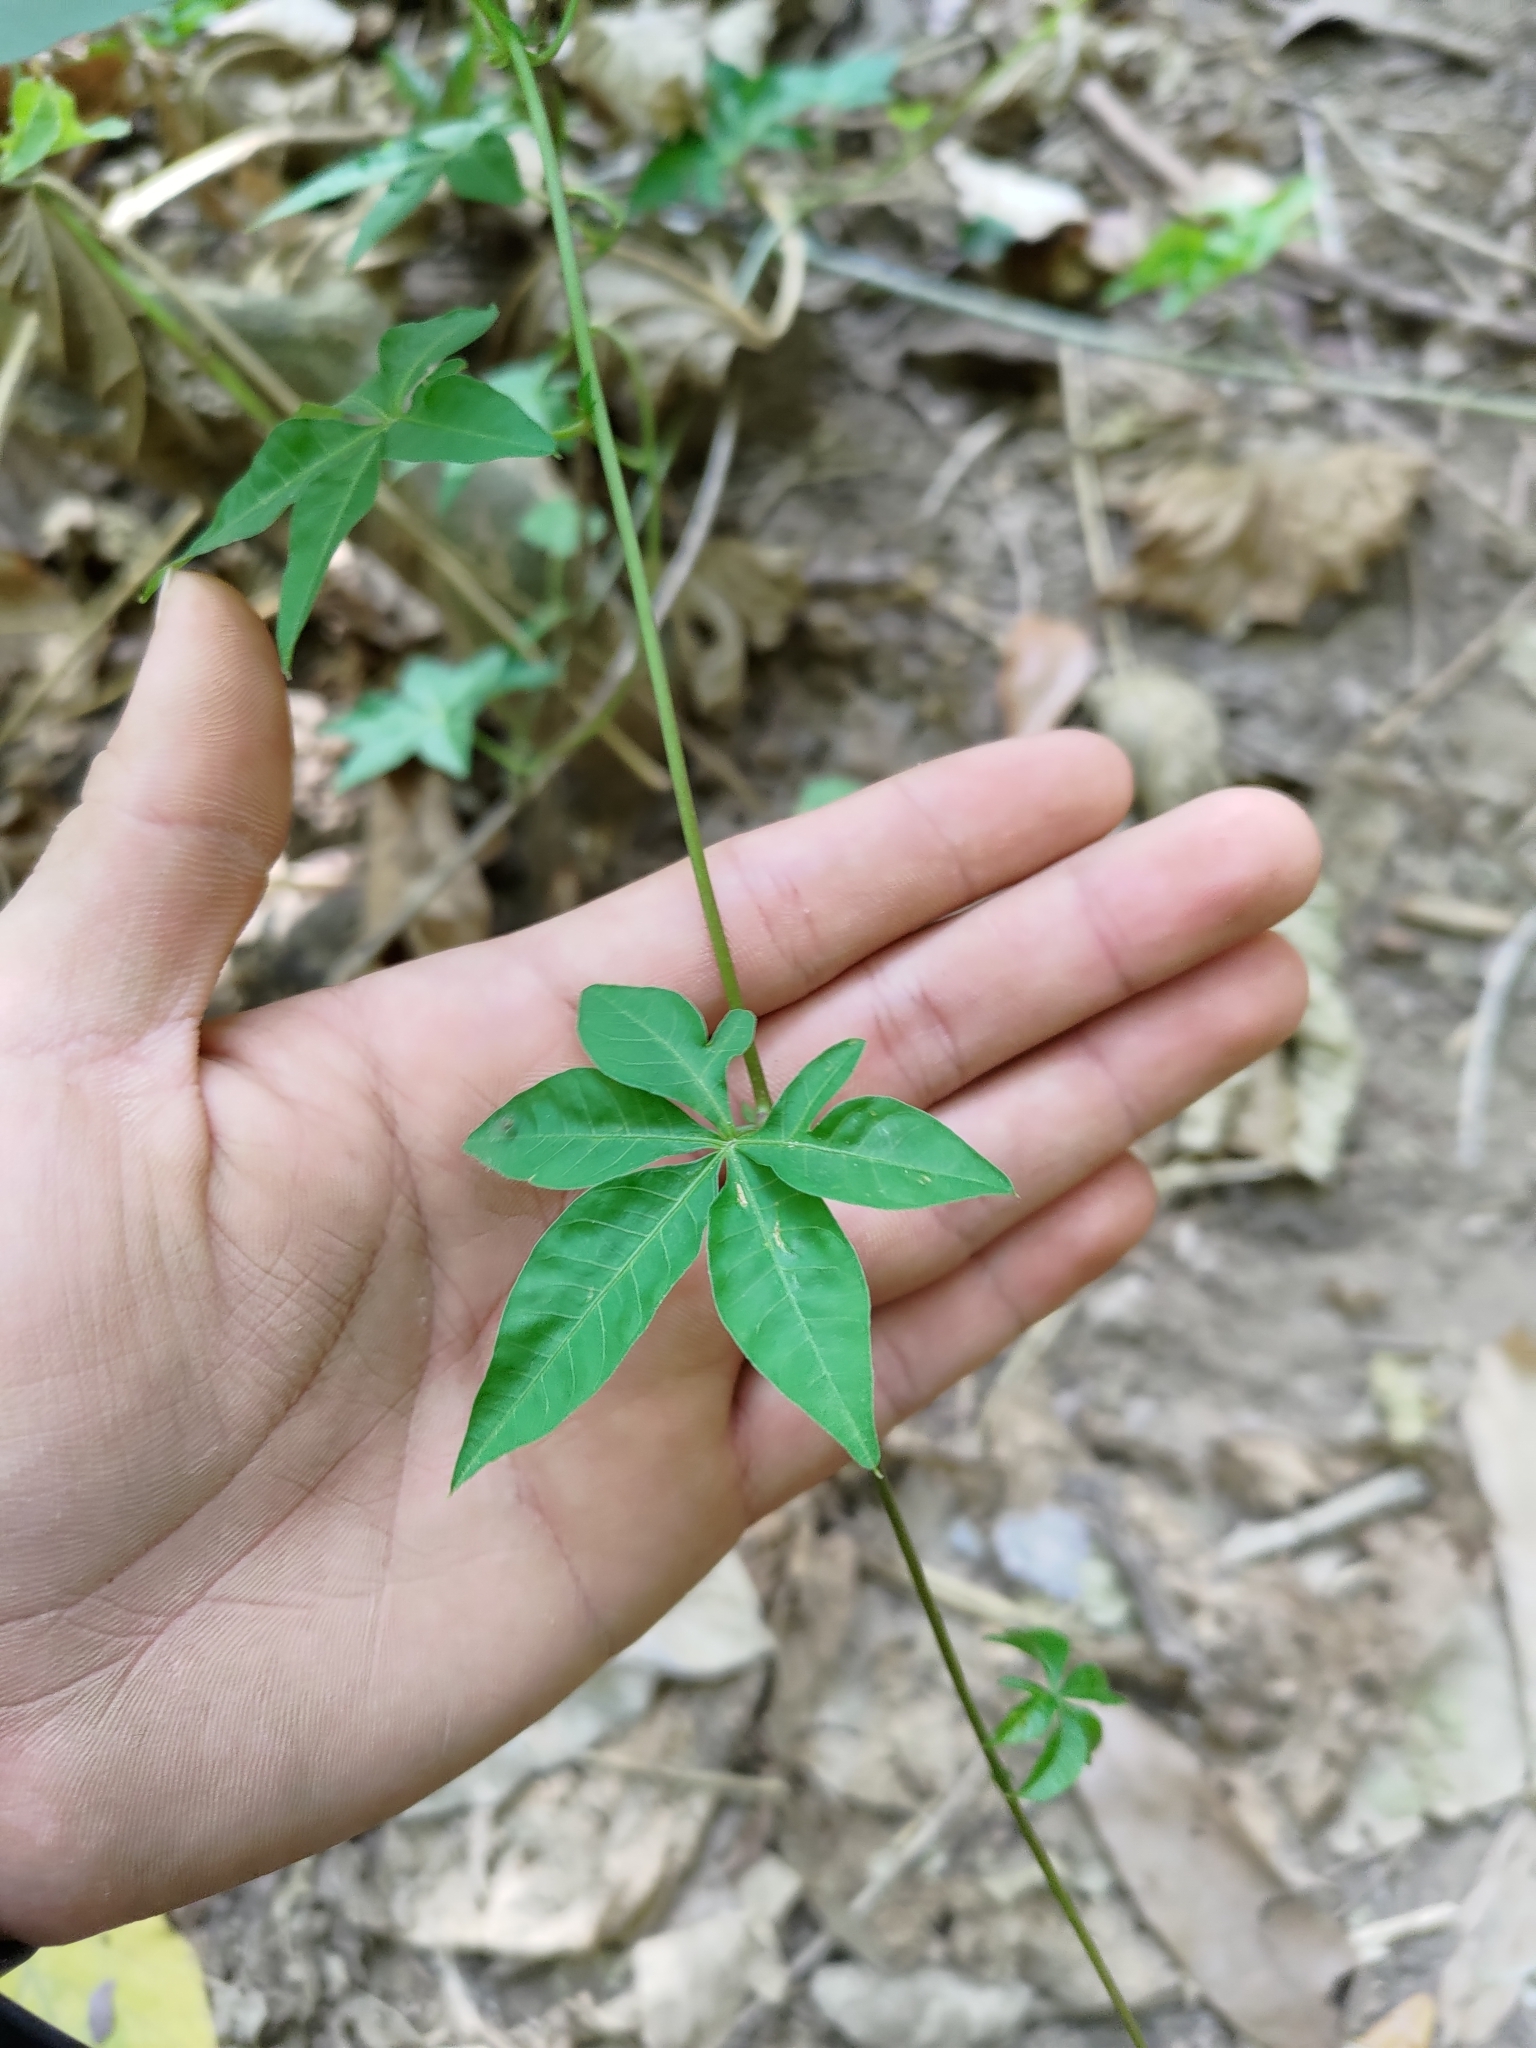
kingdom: Plantae
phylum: Tracheophyta
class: Magnoliopsida
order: Solanales
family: Convolvulaceae
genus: Ipomoea
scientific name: Ipomoea cairica
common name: Mile a minute vine
